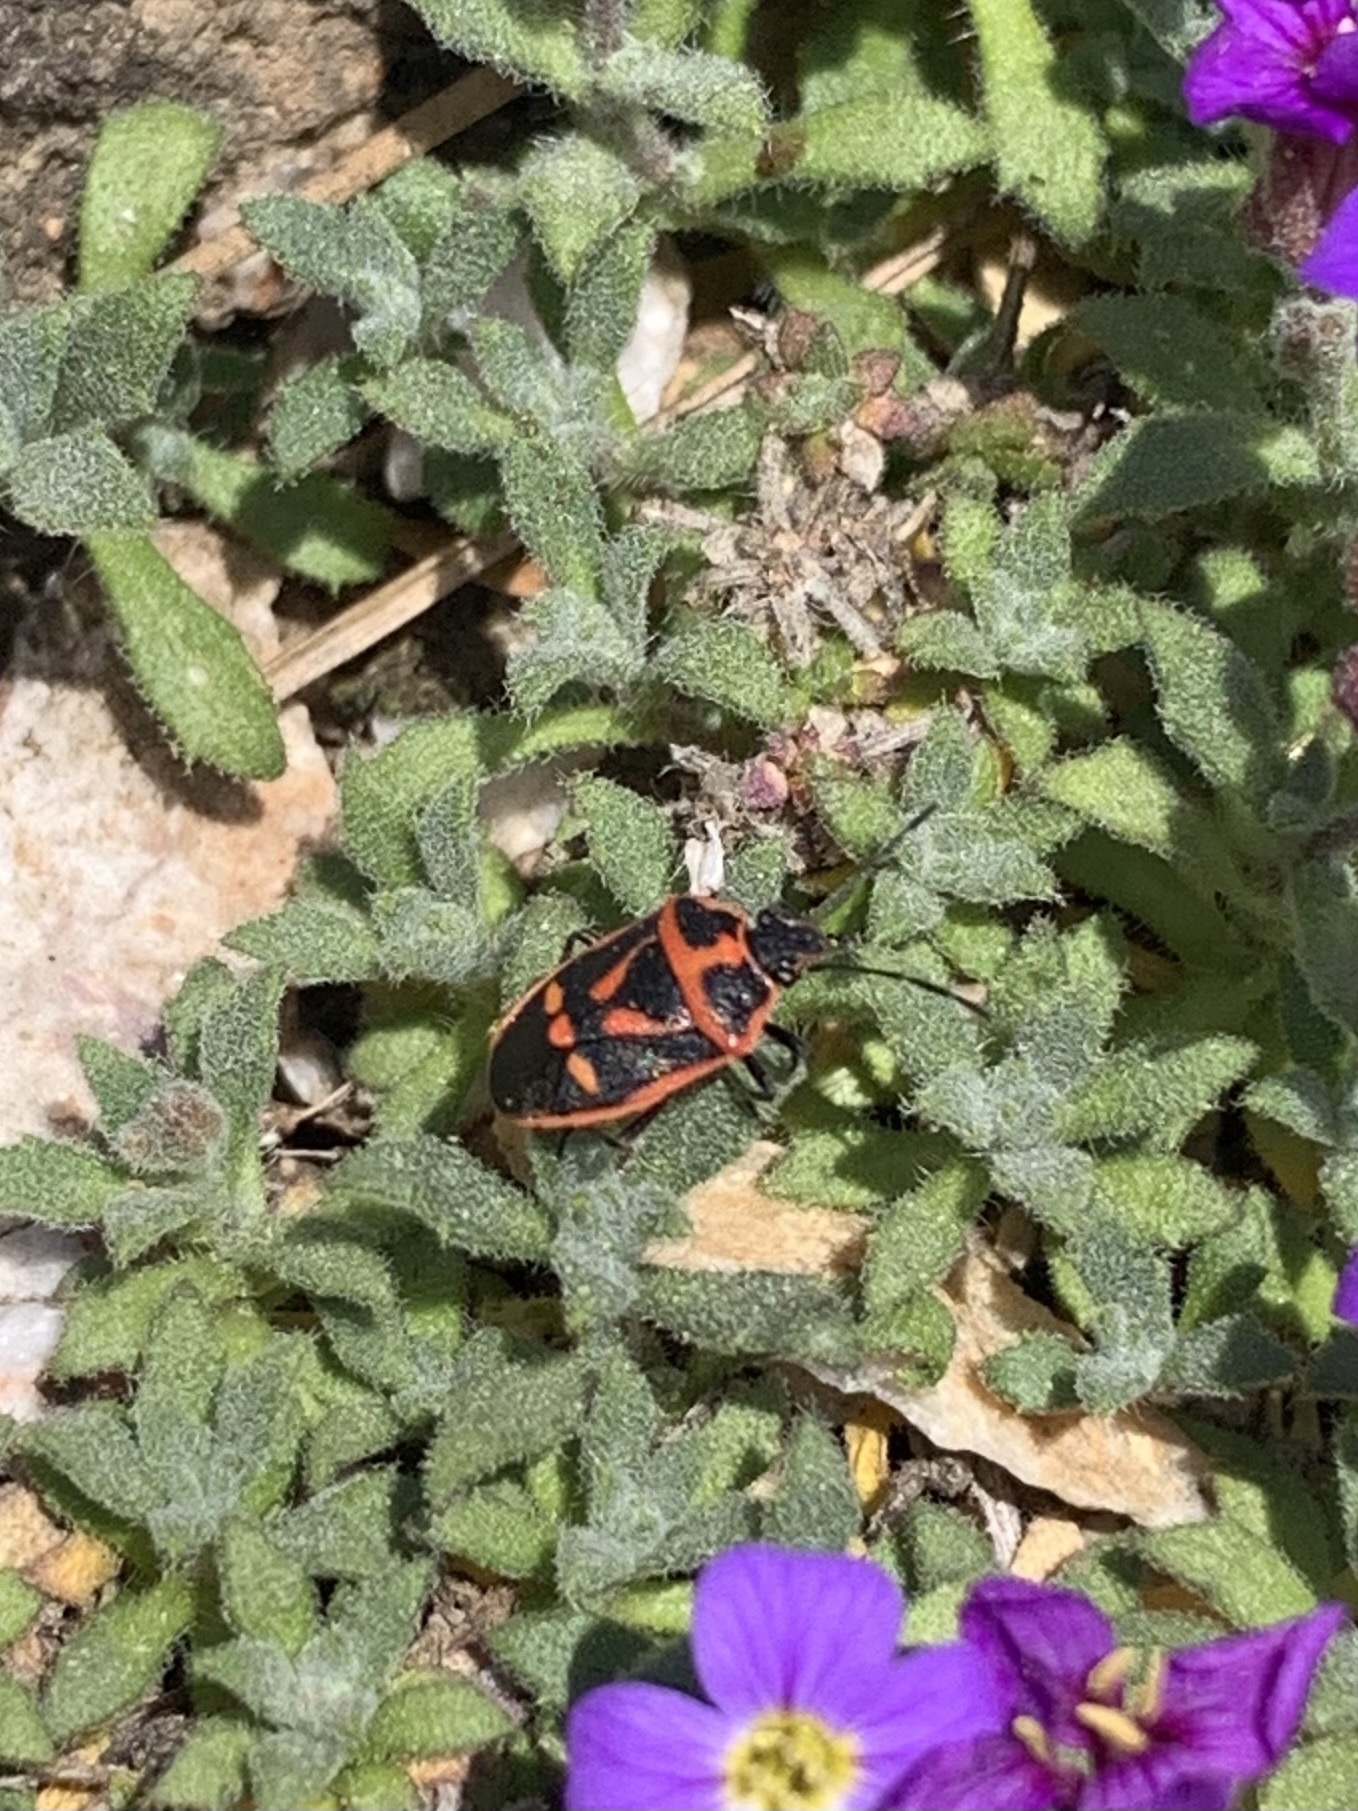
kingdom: Animalia
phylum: Arthropoda
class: Insecta
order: Hemiptera
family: Pentatomidae
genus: Eurydema
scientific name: Eurydema rugulosa
